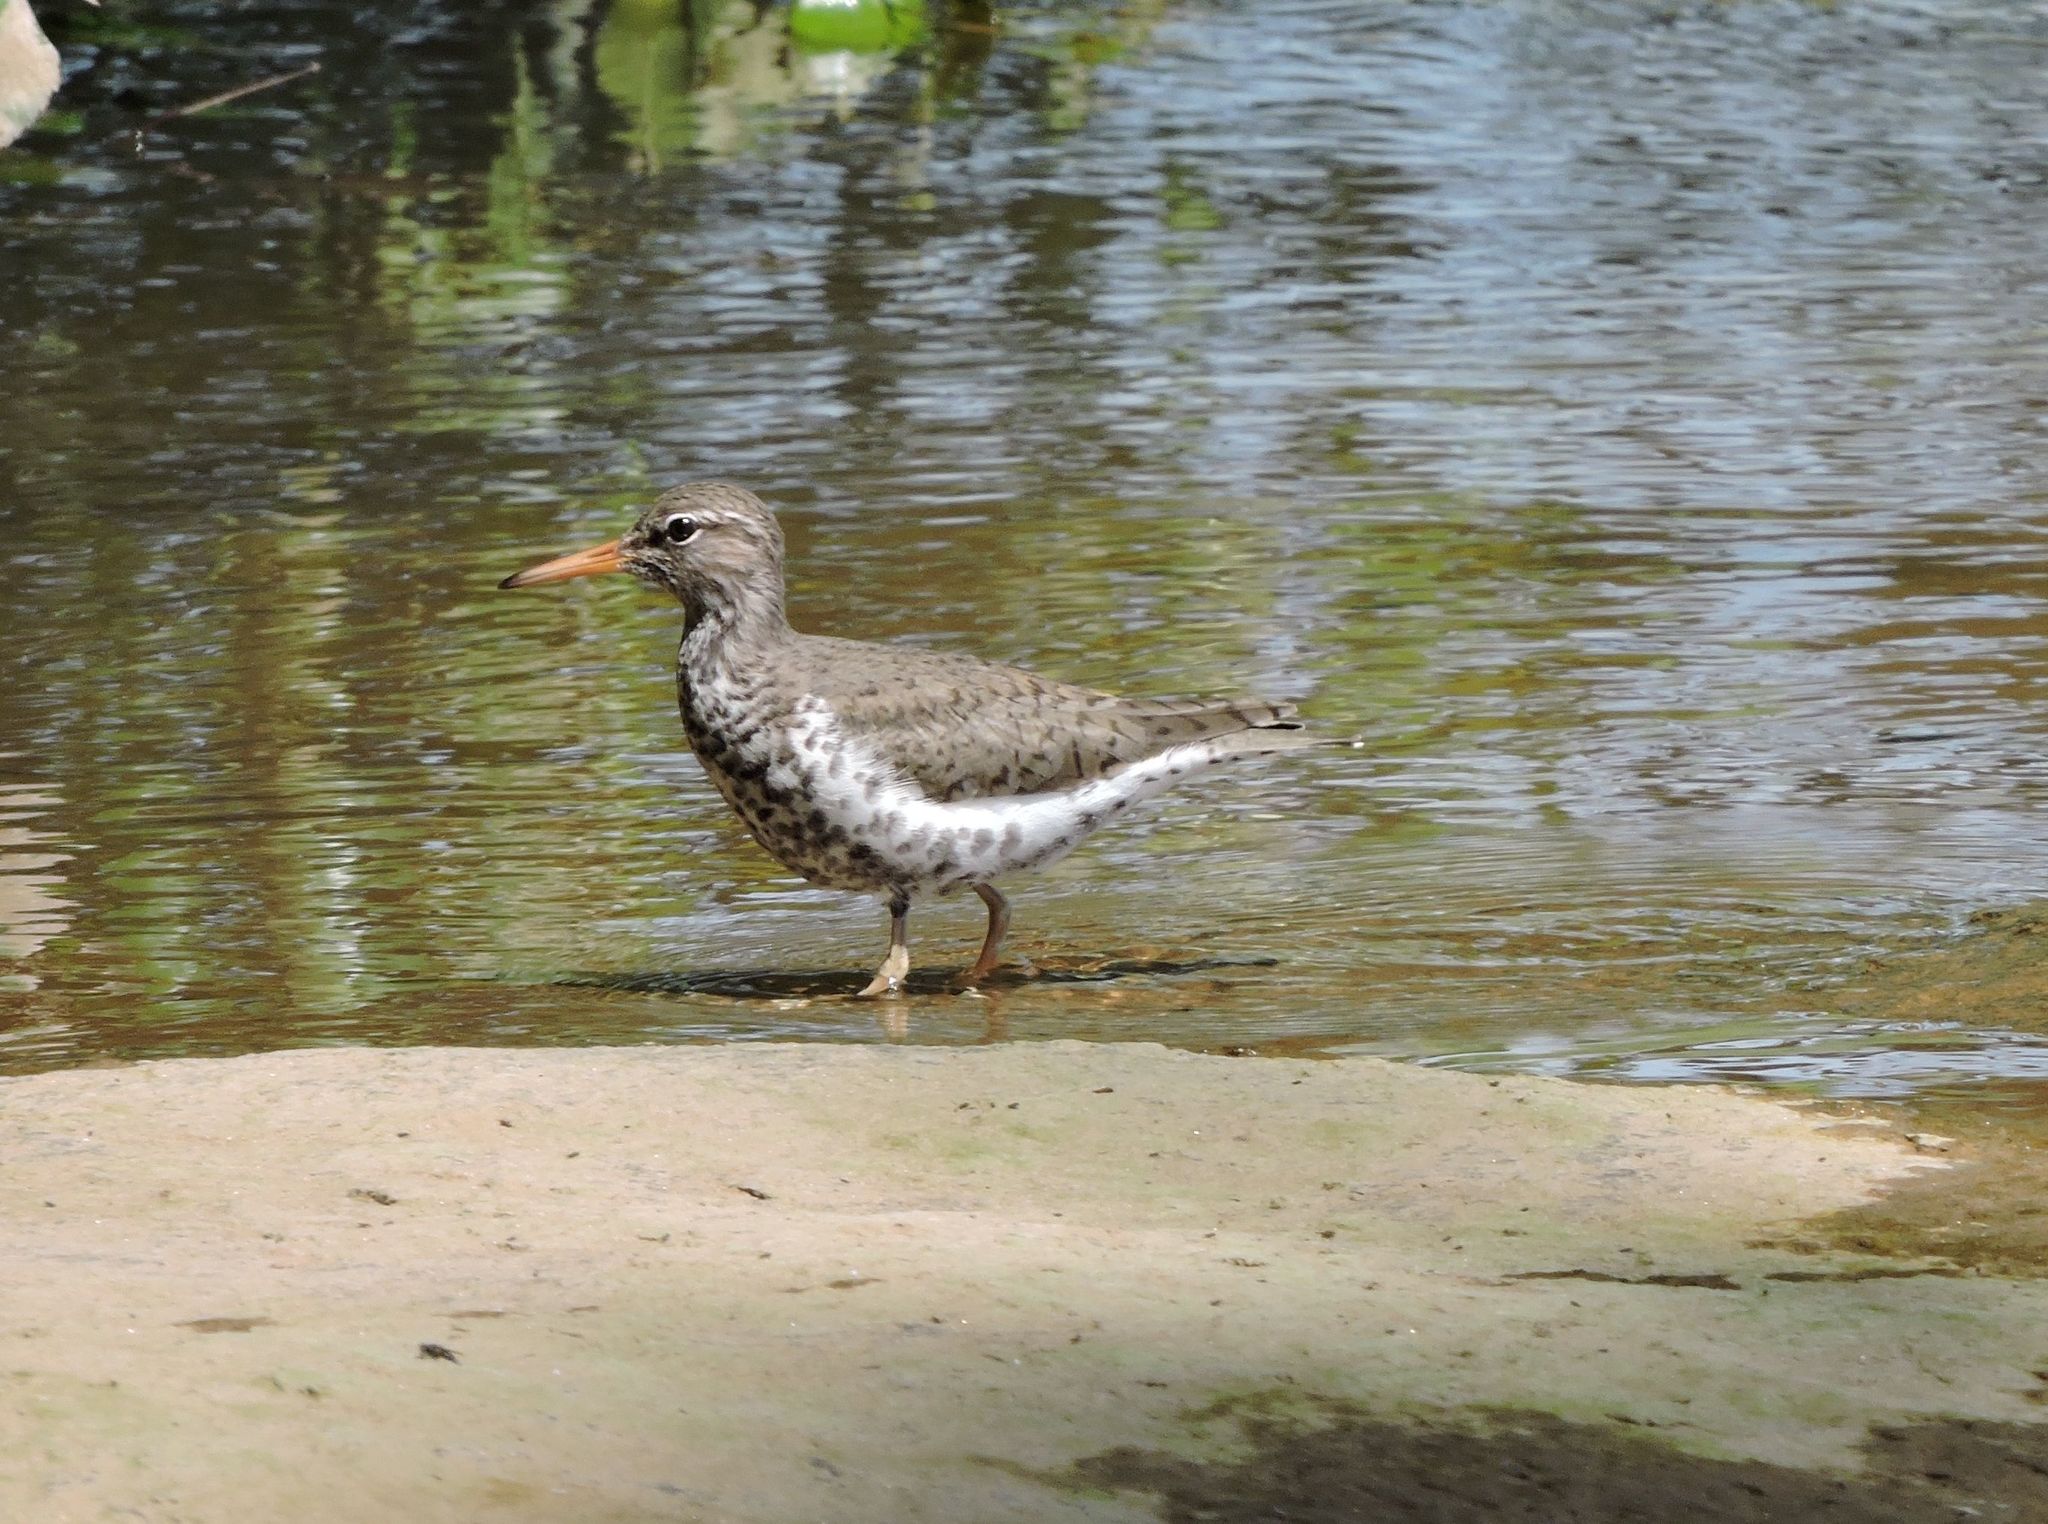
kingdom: Animalia
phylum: Chordata
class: Aves
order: Charadriiformes
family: Scolopacidae
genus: Actitis
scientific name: Actitis macularius
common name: Spotted sandpiper
